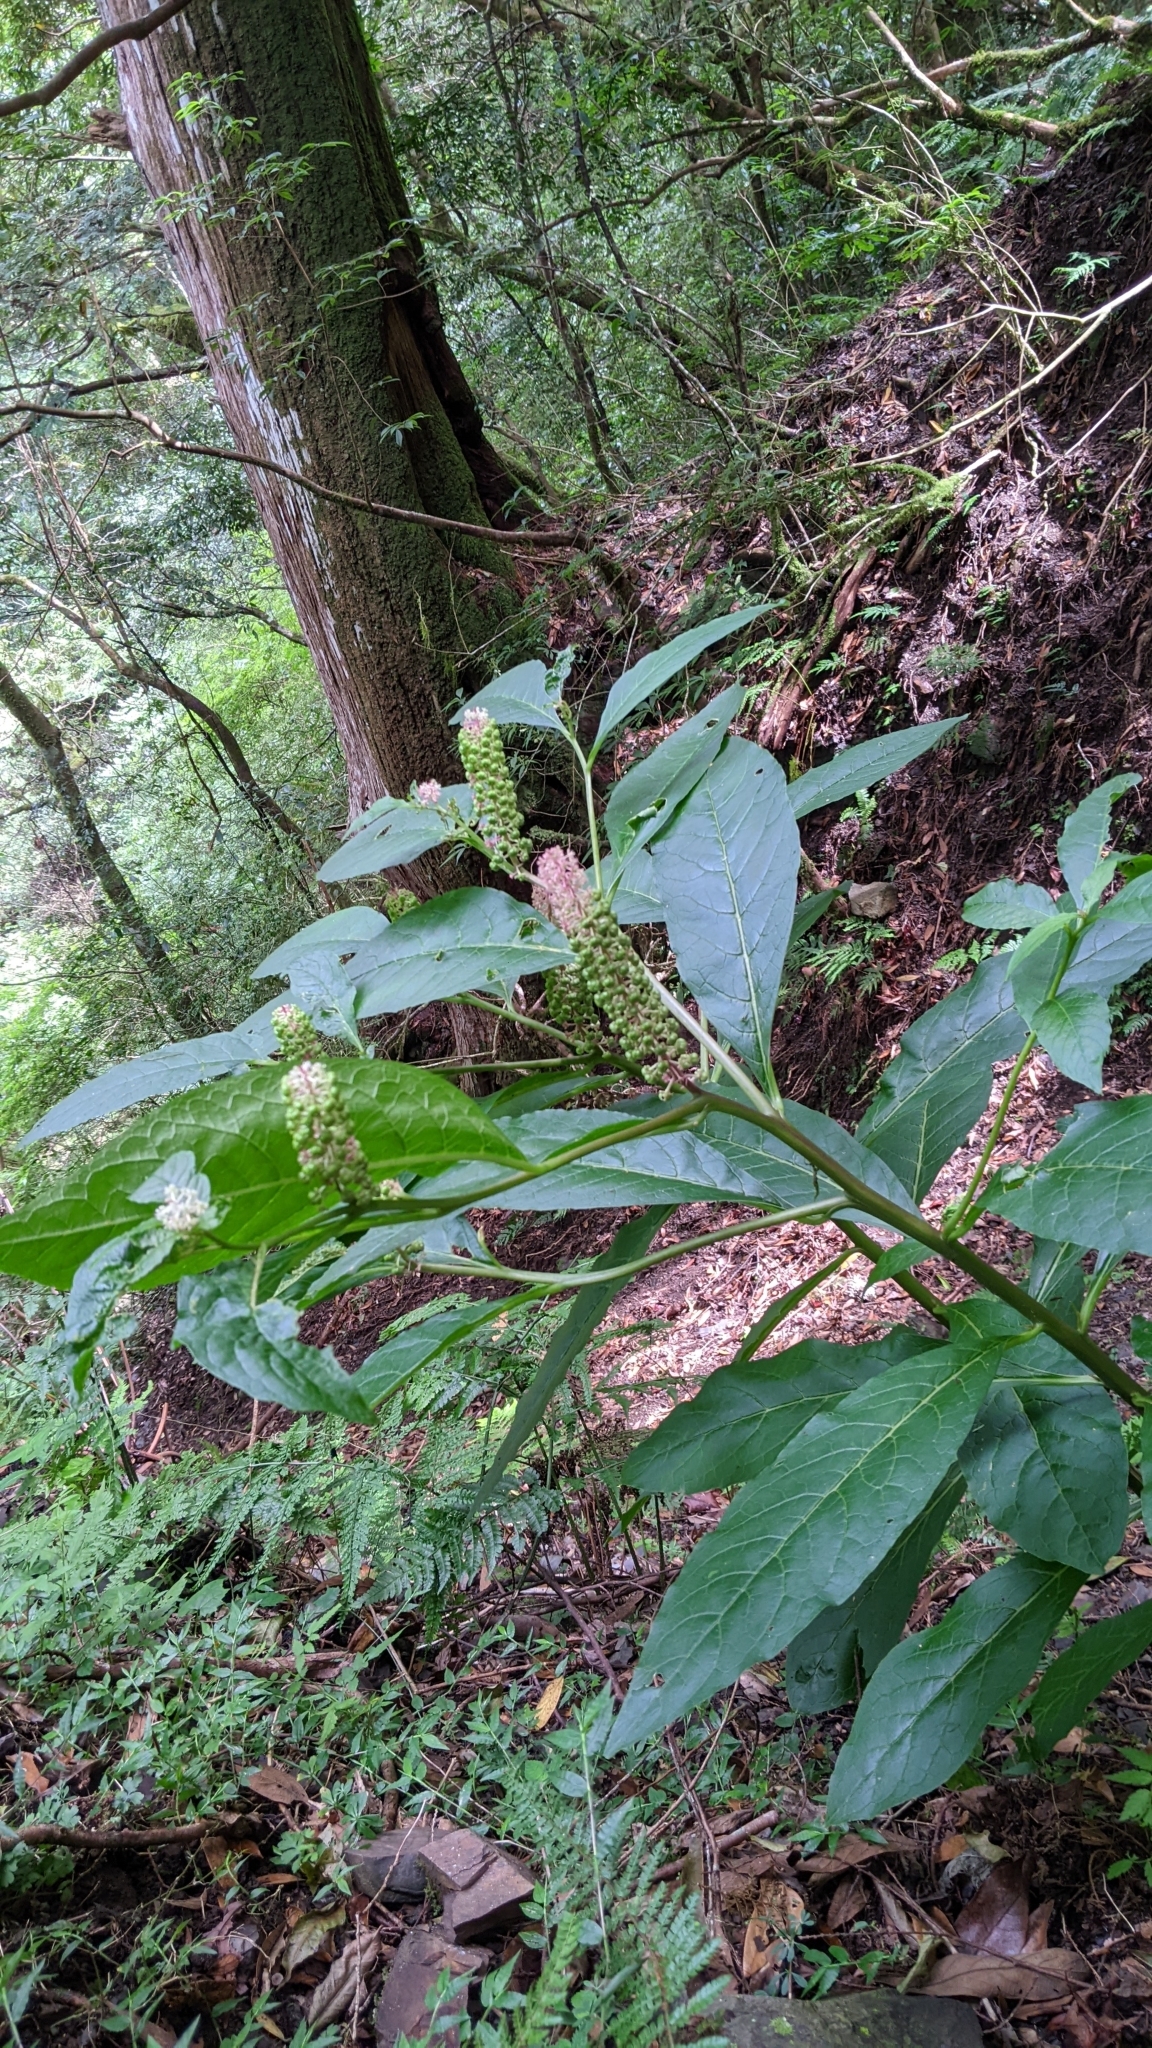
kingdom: Plantae
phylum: Tracheophyta
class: Magnoliopsida
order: Caryophyllales
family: Phytolaccaceae
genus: Phytolacca
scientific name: Phytolacca japonica
